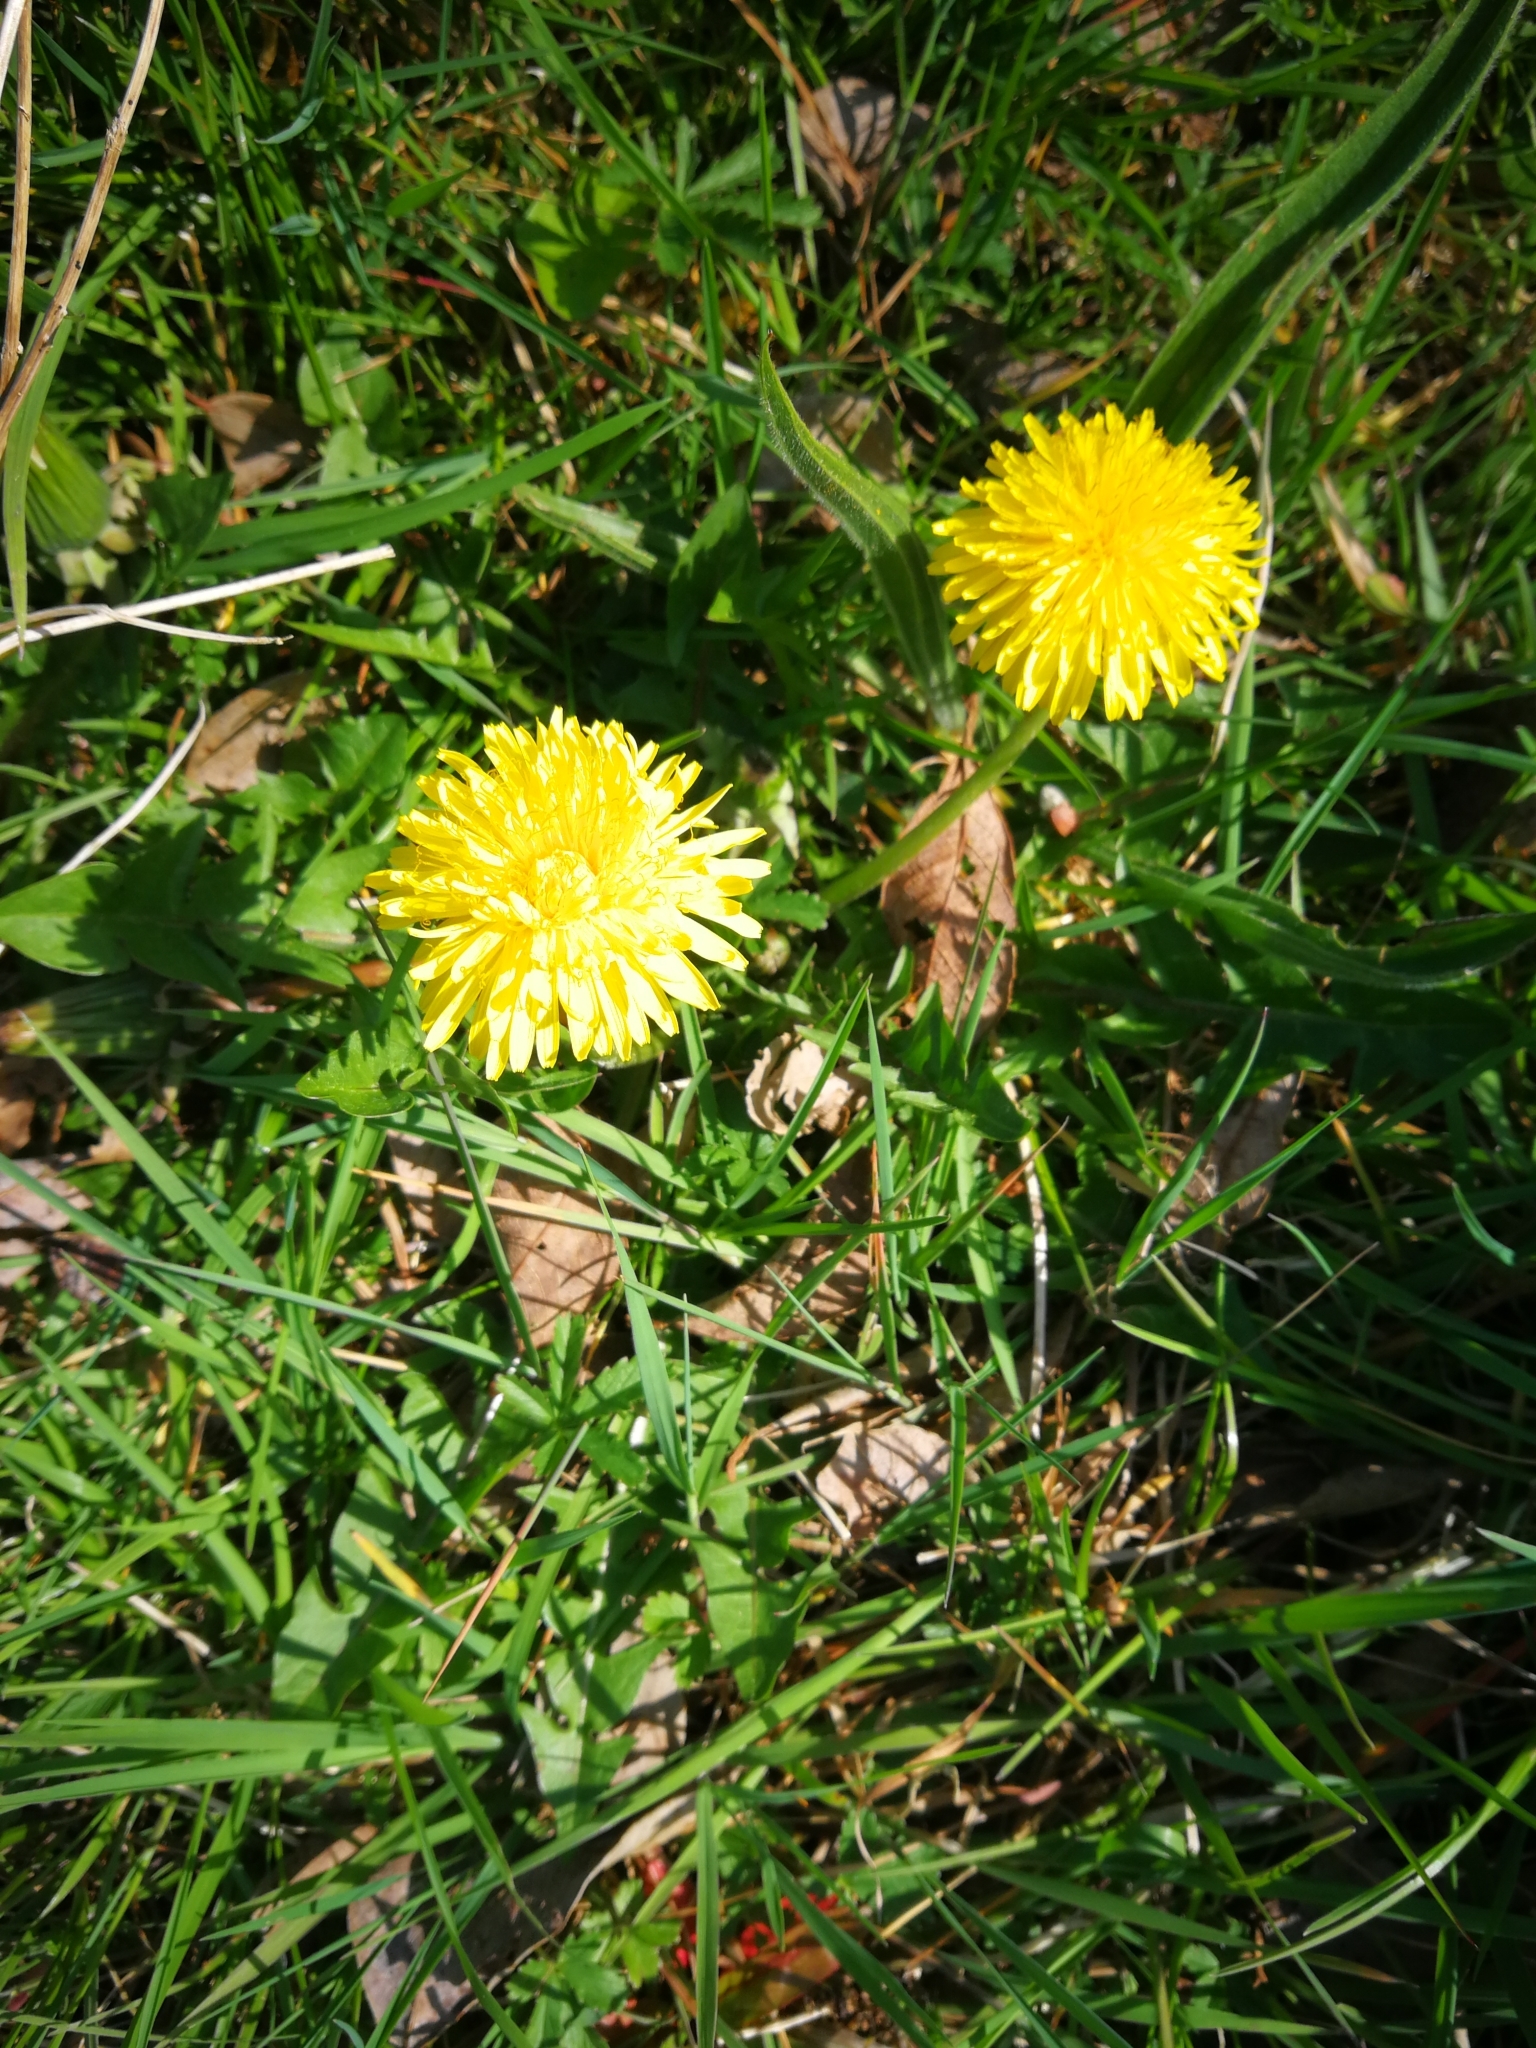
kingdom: Plantae
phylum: Tracheophyta
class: Magnoliopsida
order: Asterales
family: Asteraceae
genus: Taraxacum
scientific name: Taraxacum officinale
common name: Common dandelion
